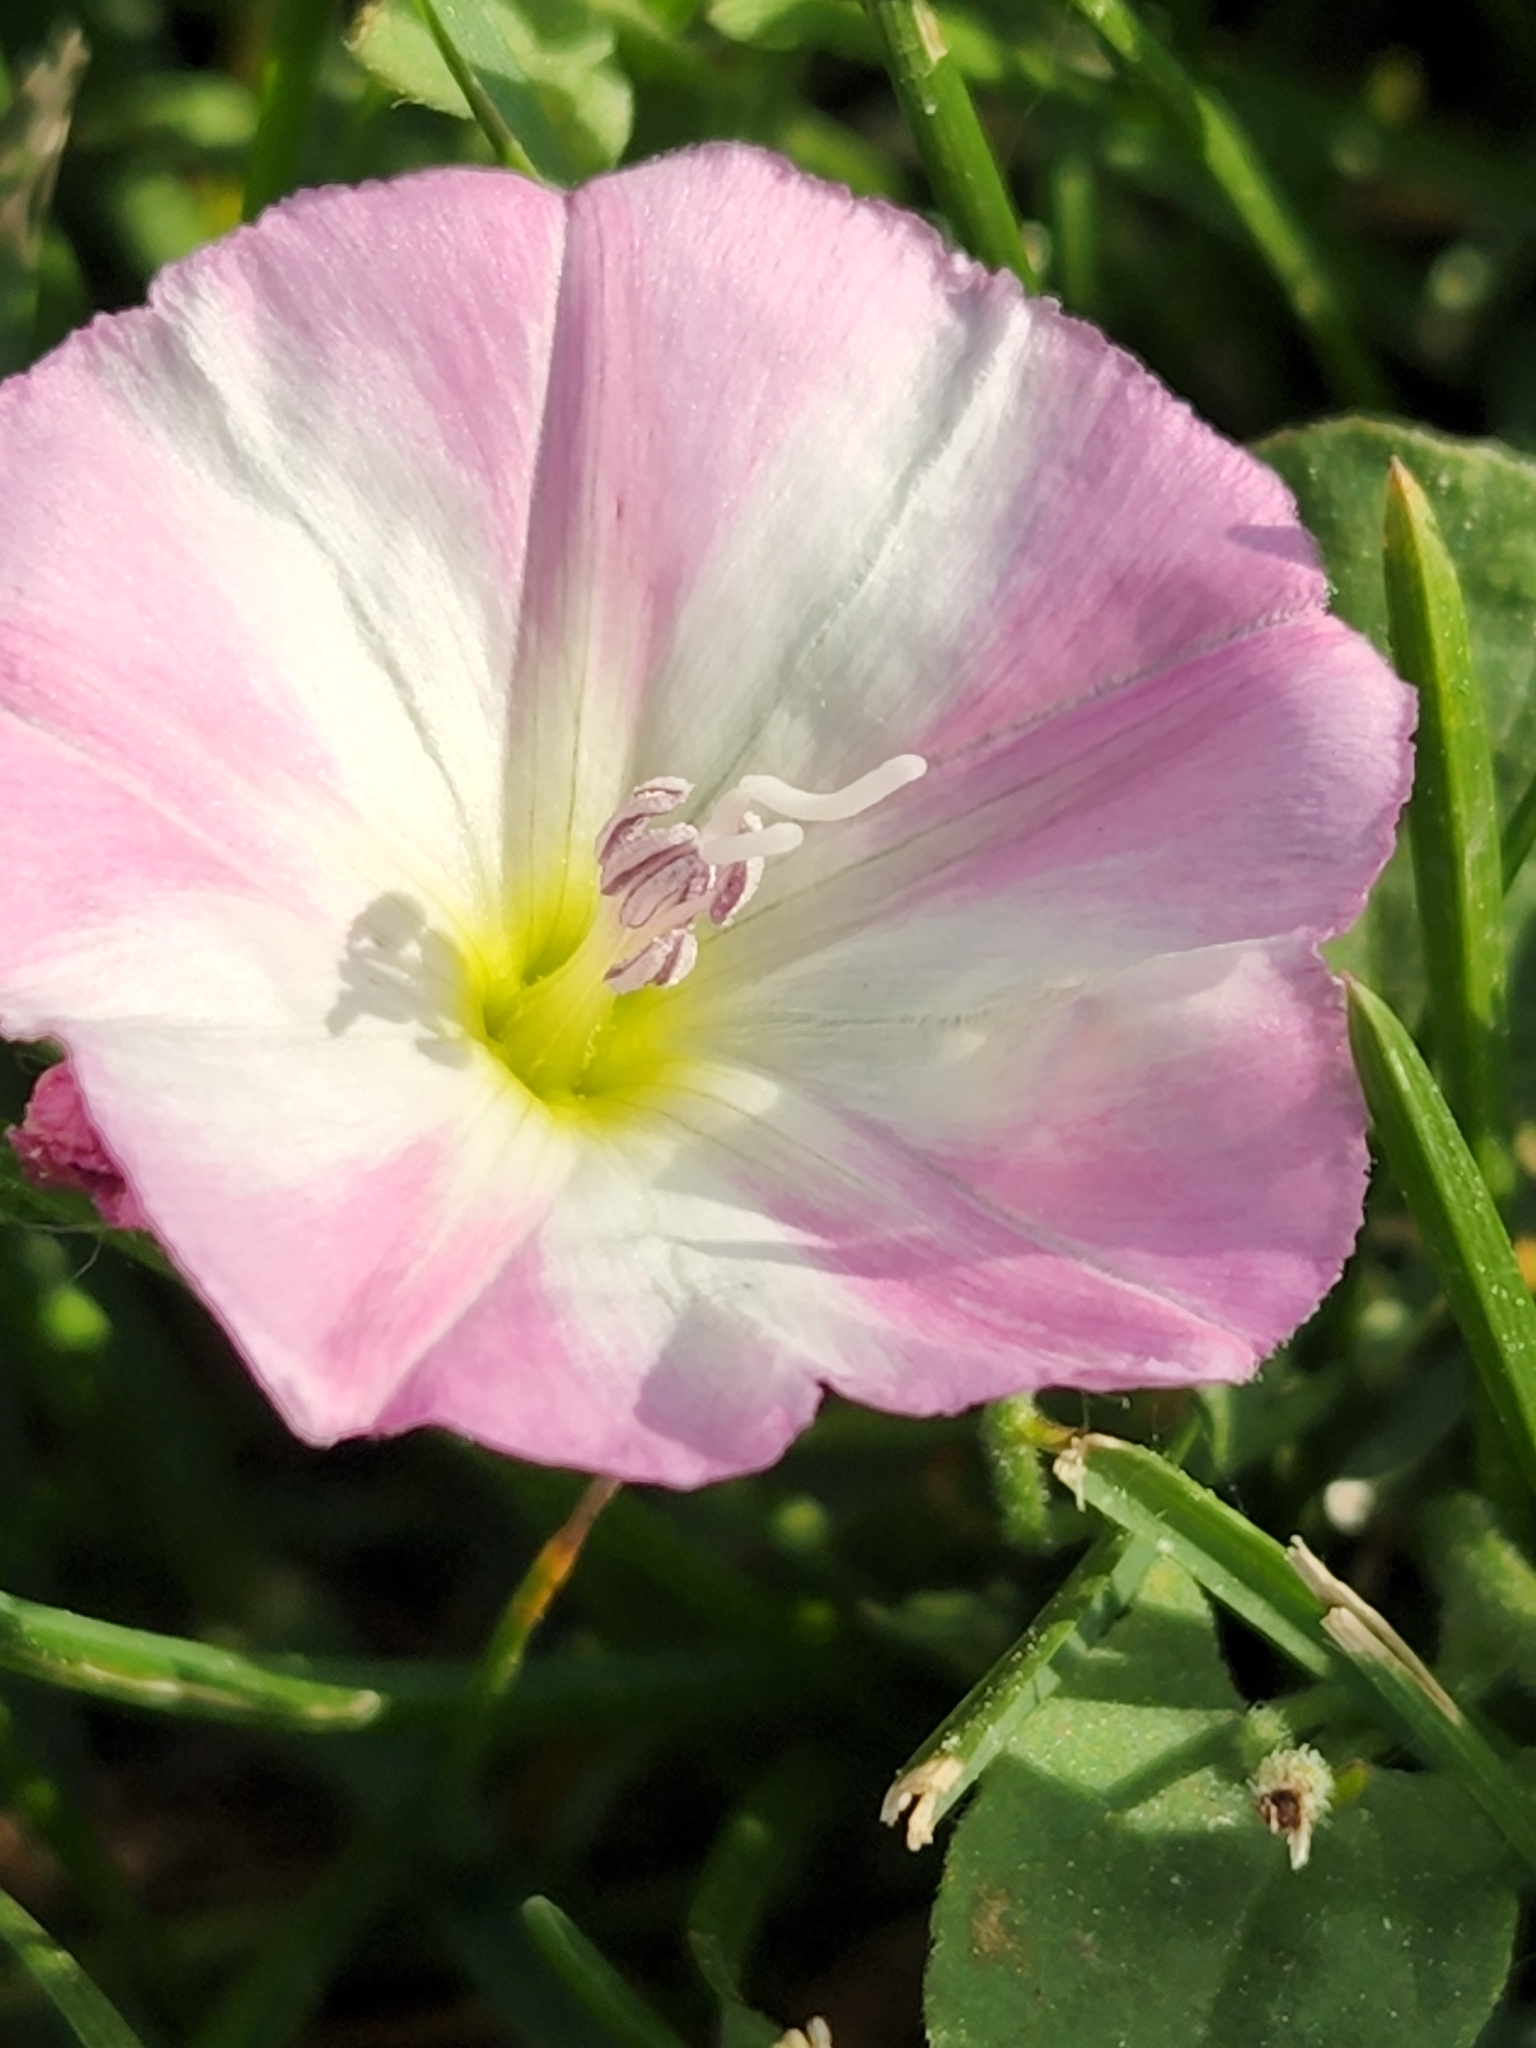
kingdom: Plantae
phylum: Tracheophyta
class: Magnoliopsida
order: Solanales
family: Convolvulaceae
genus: Convolvulus
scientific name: Convolvulus arvensis
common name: Field bindweed
